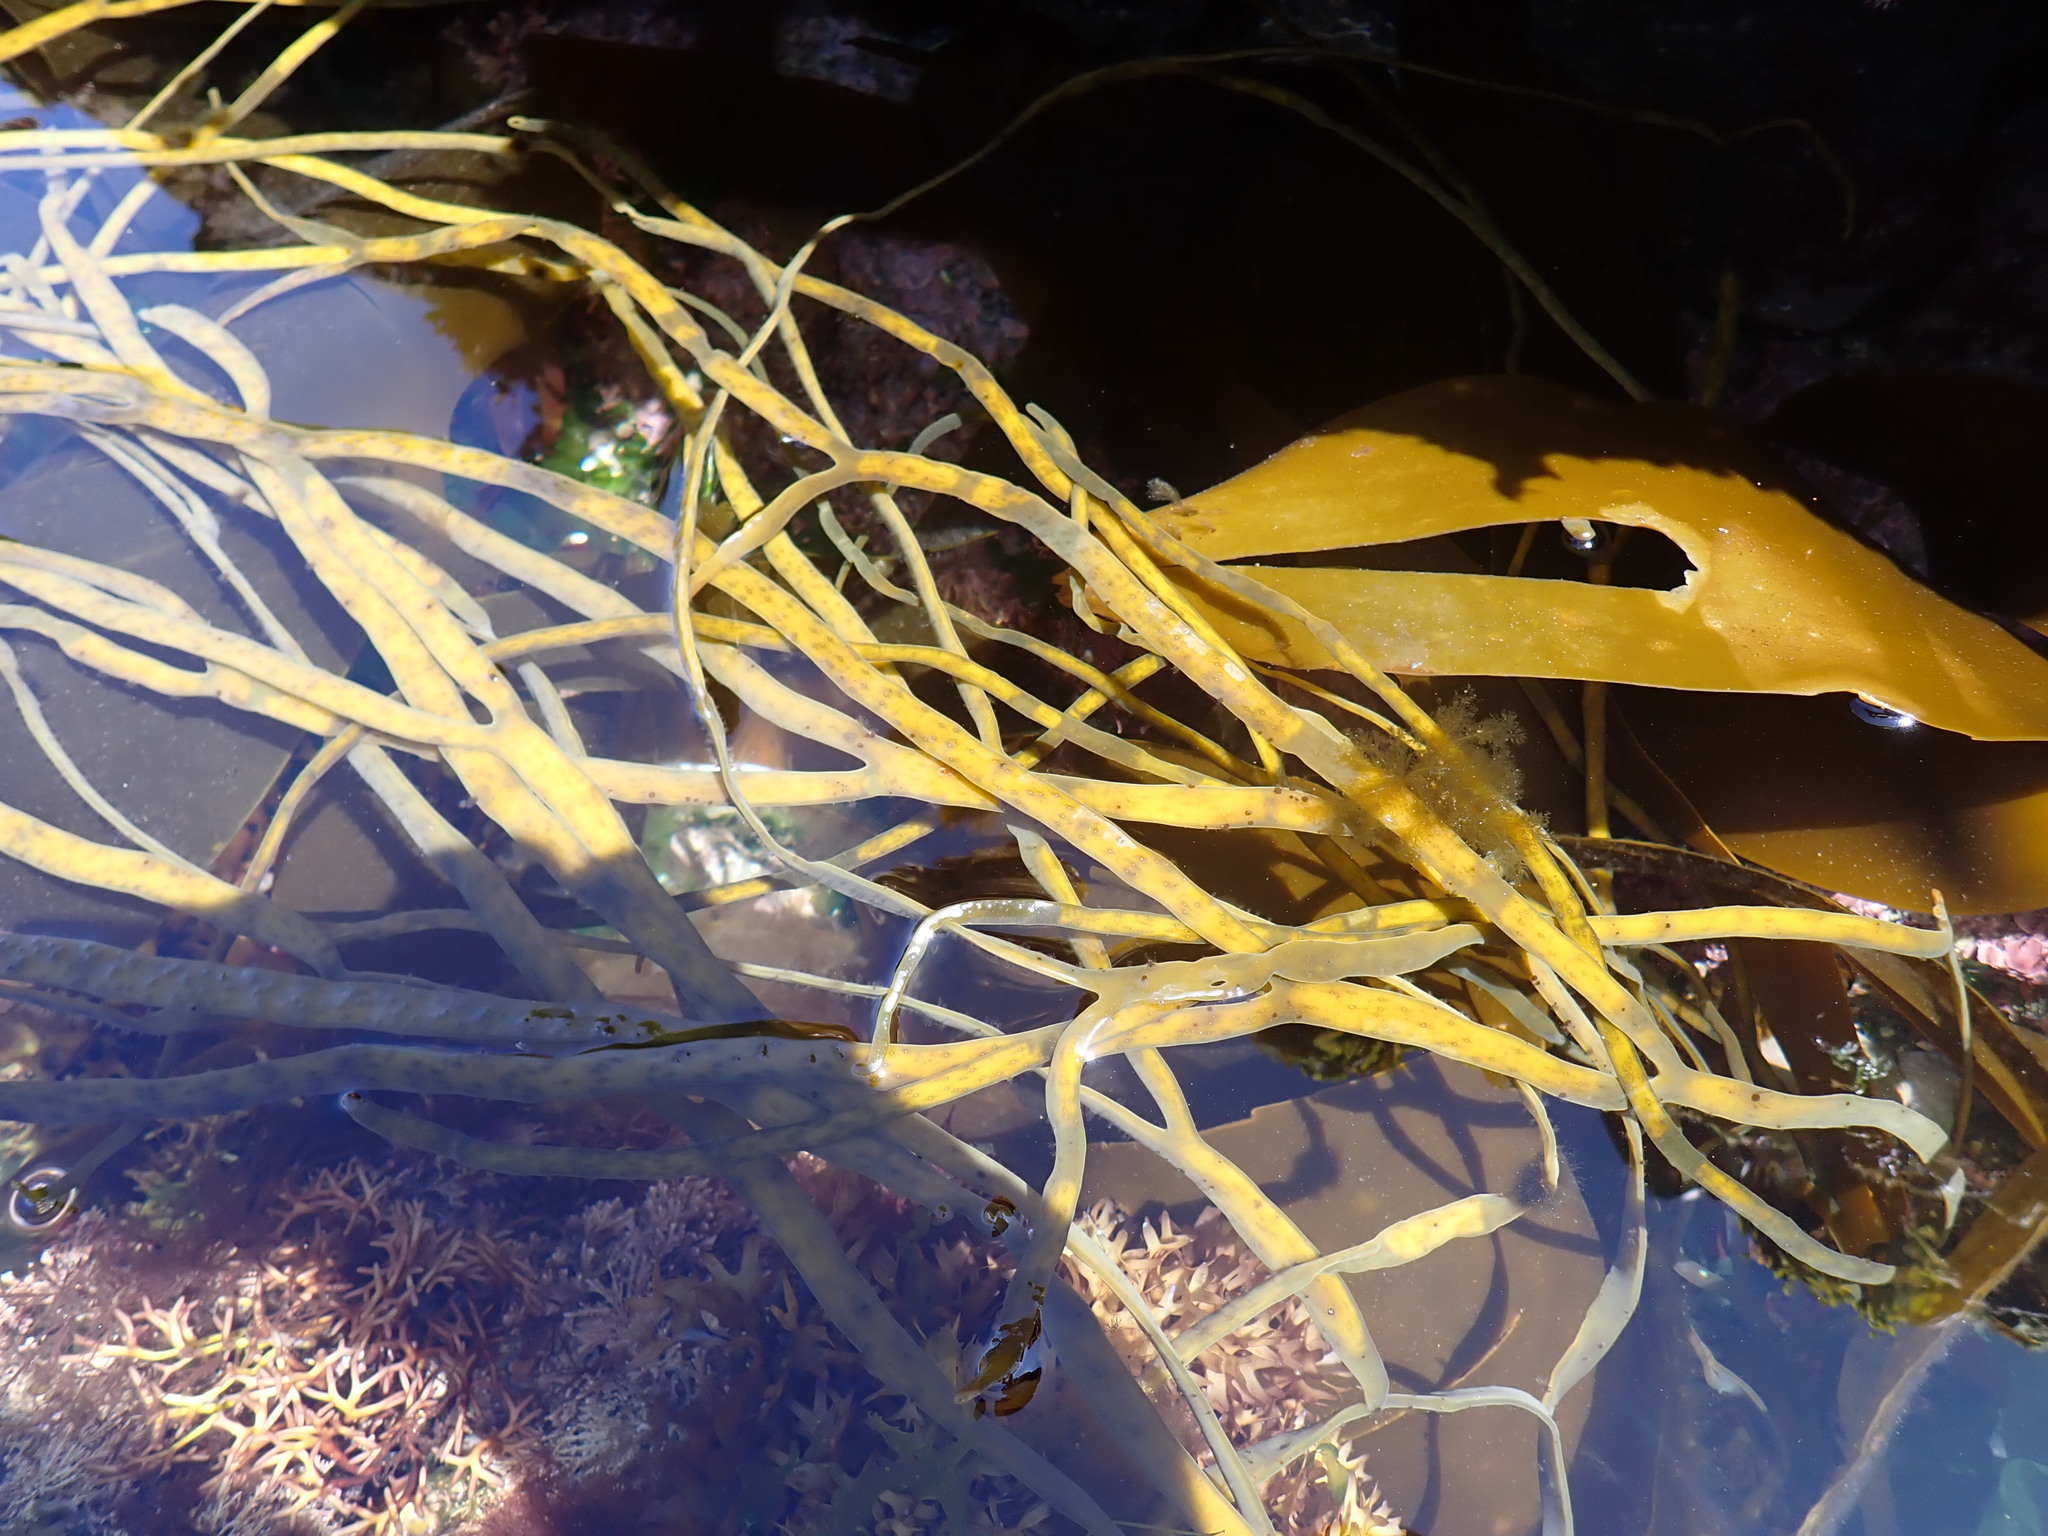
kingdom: Chromista
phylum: Ochrophyta
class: Phaeophyceae
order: Fucales
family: Himanthaliaceae
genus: Himanthalia
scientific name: Himanthalia elongata
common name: Sea-thong
